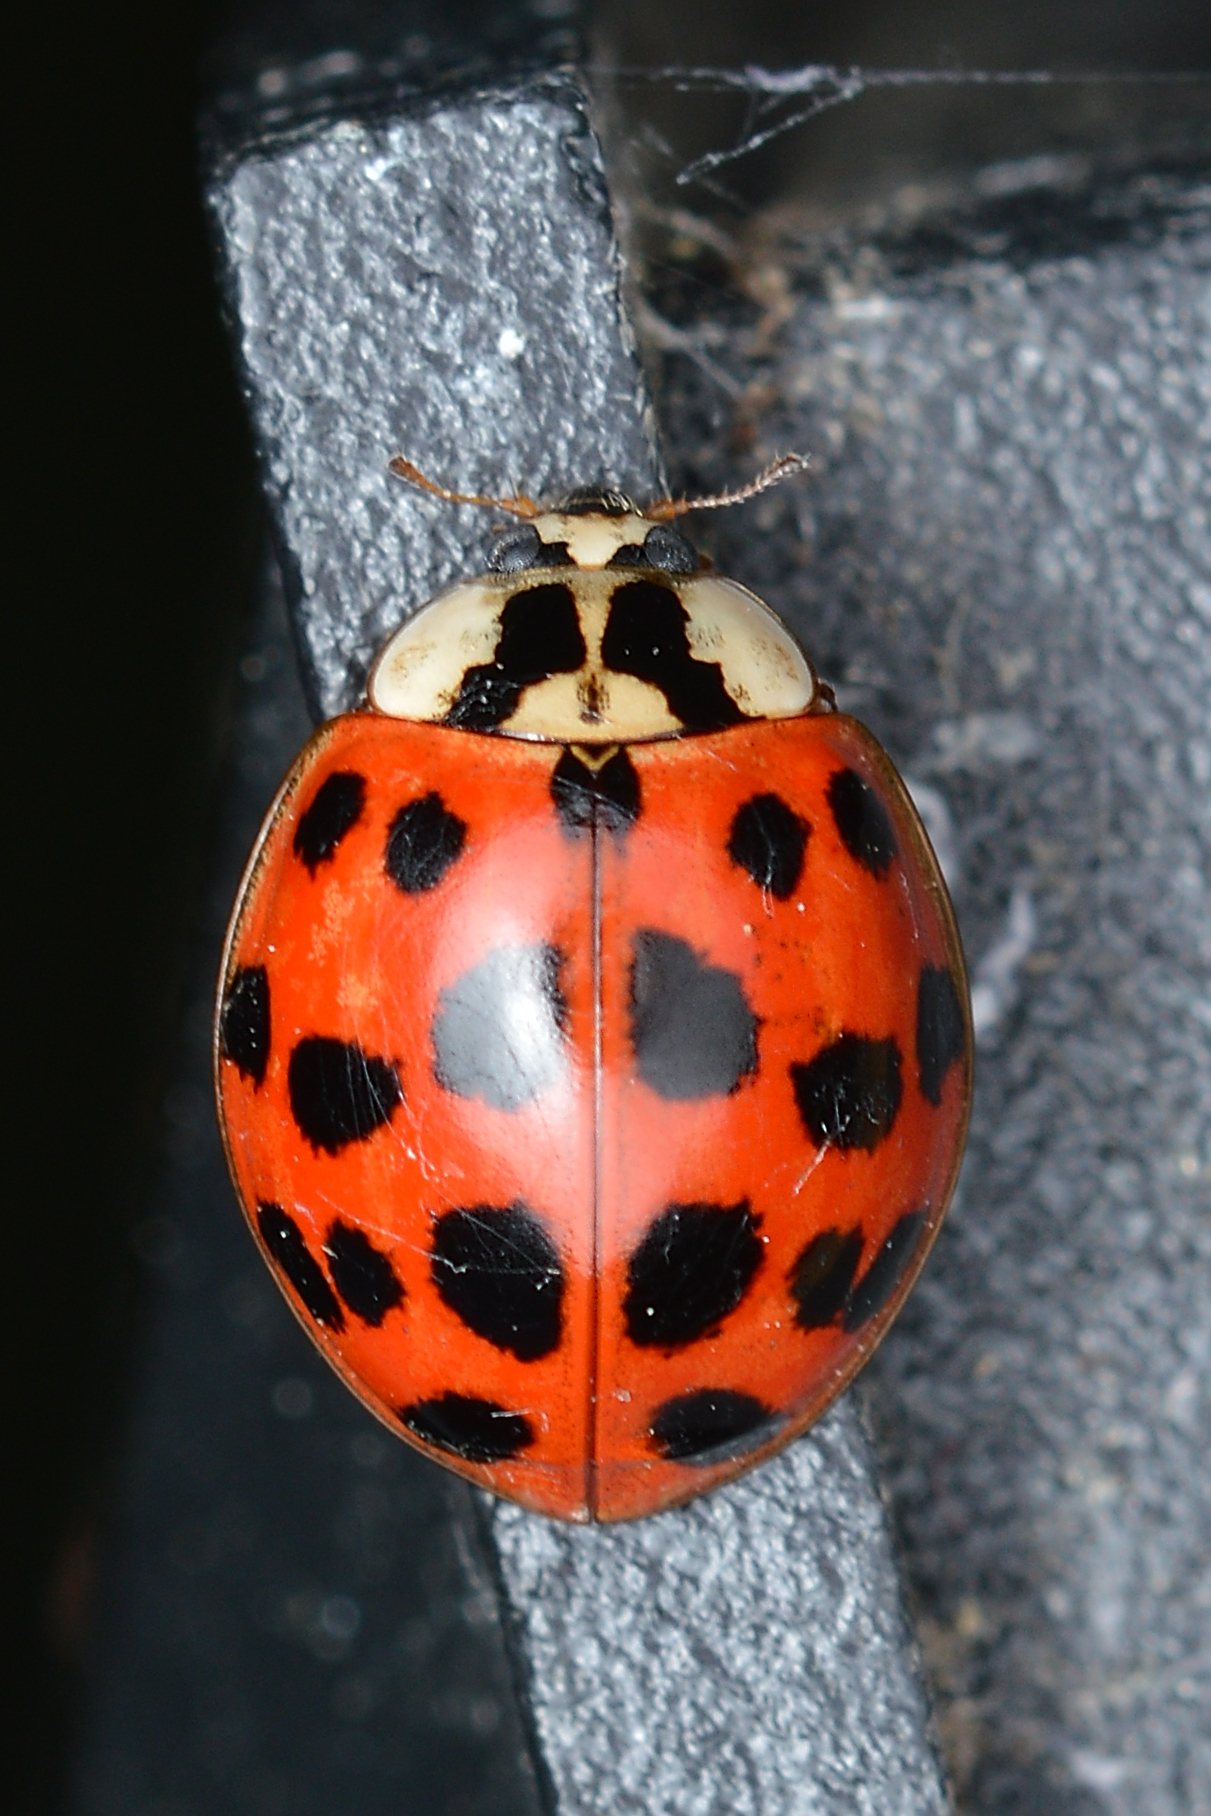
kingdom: Animalia
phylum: Arthropoda
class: Insecta
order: Coleoptera
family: Coccinellidae
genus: Harmonia
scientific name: Harmonia axyridis
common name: Harlequin ladybird
